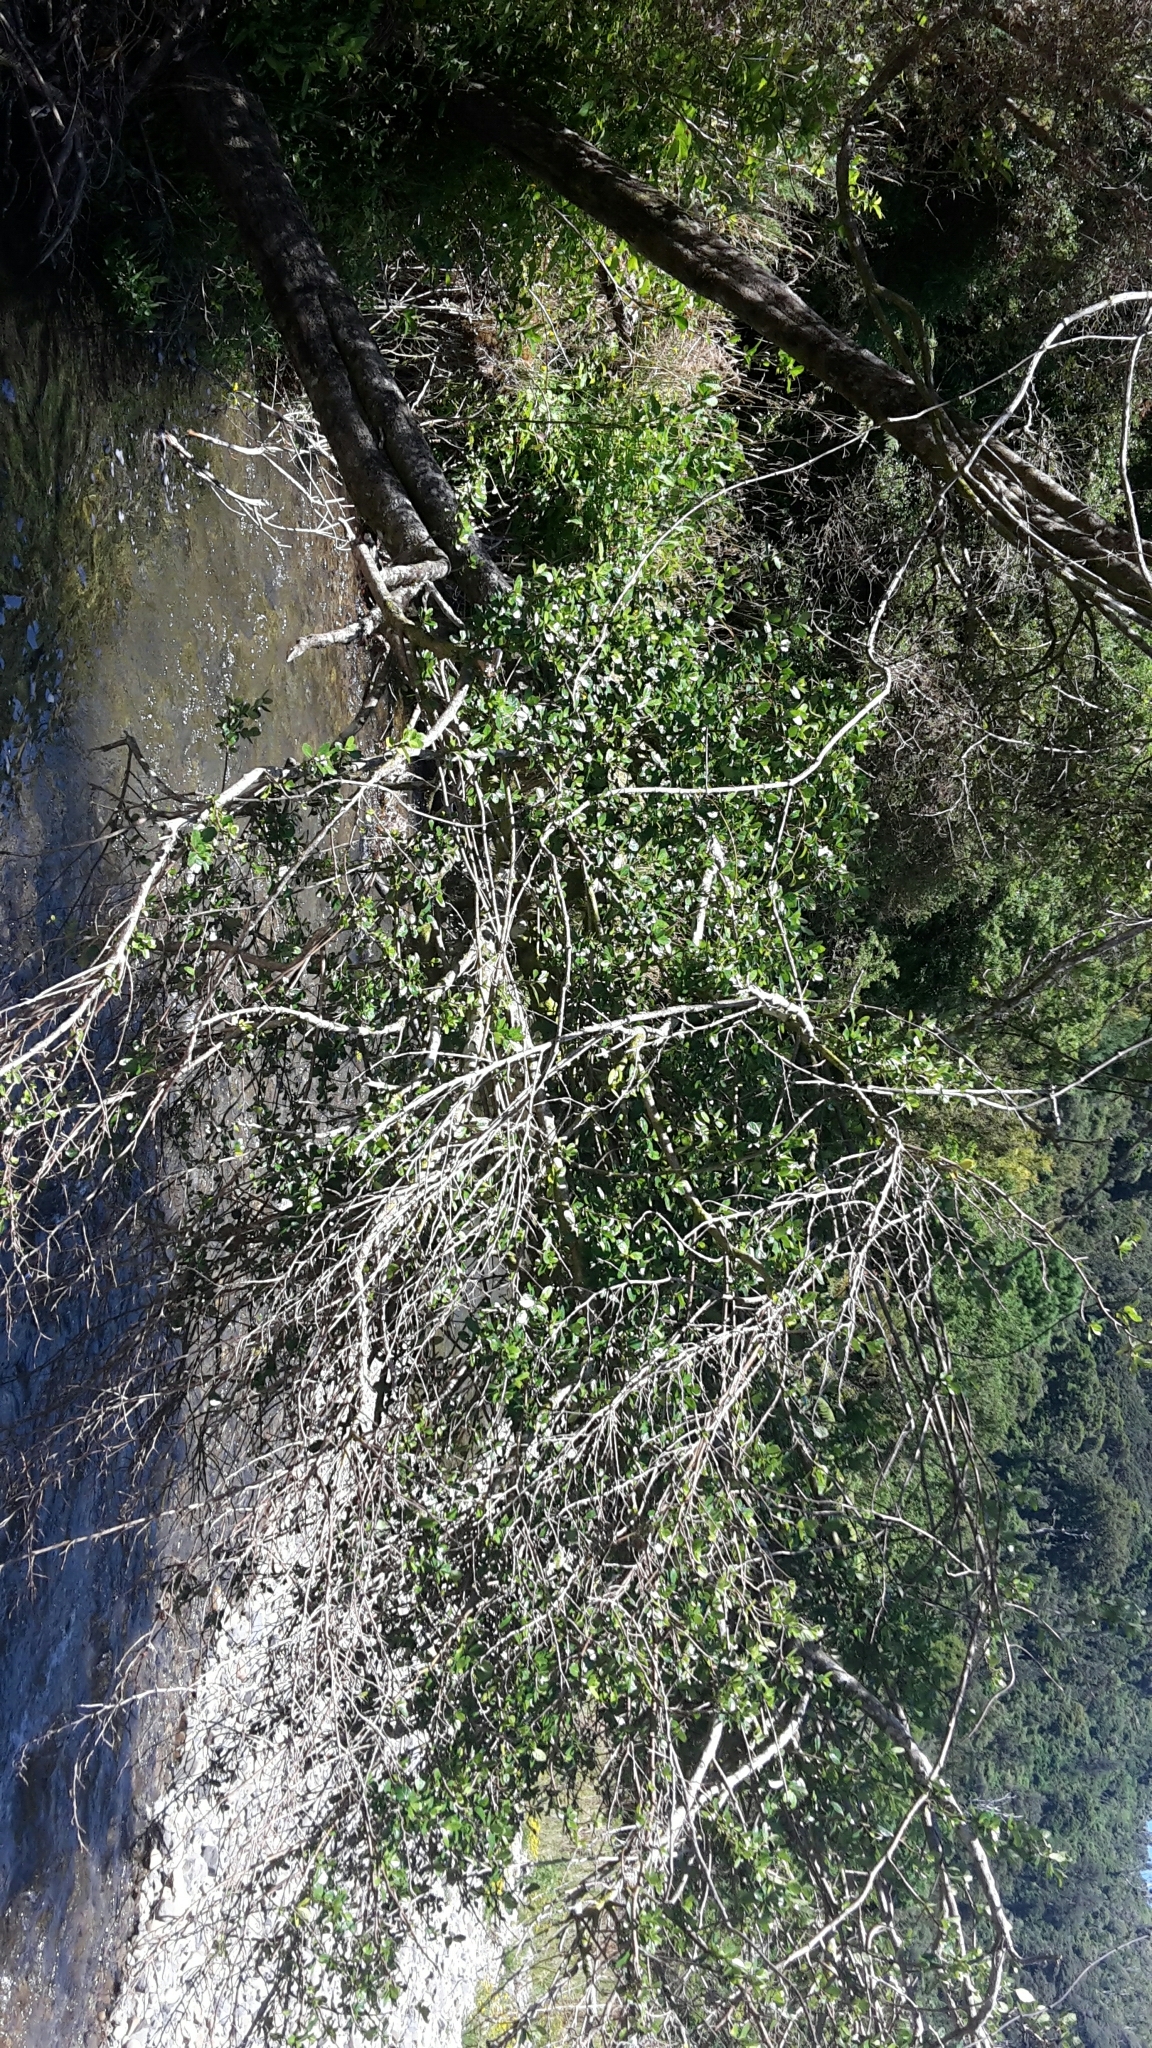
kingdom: Plantae
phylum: Tracheophyta
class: Magnoliopsida
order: Apiales
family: Pennantiaceae
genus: Pennantia
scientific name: Pennantia corymbosa
